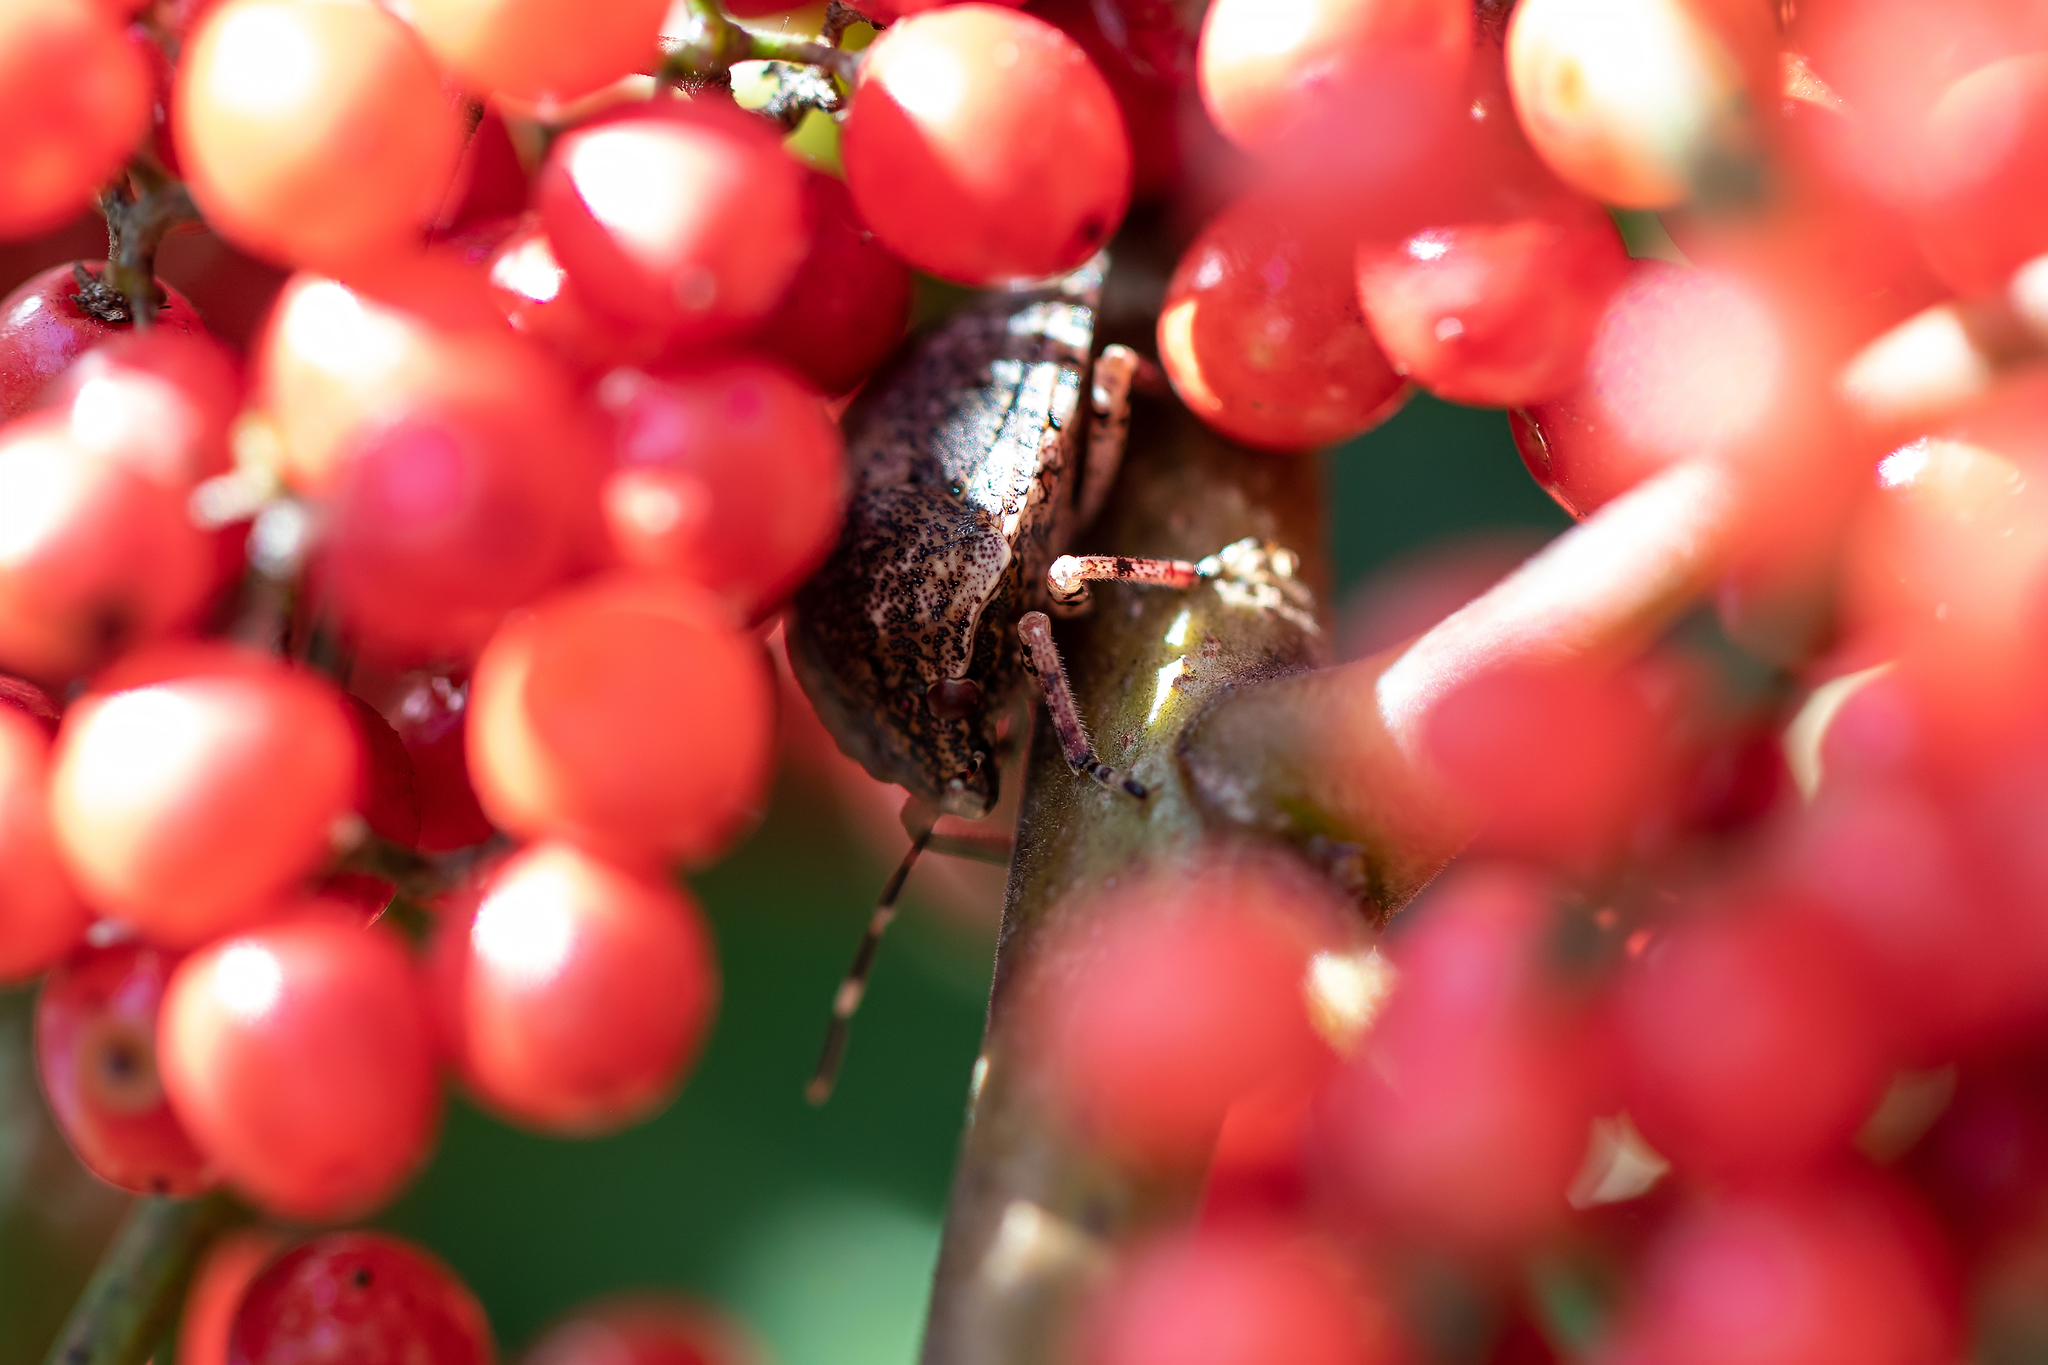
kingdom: Animalia
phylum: Arthropoda
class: Insecta
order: Hemiptera
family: Scutelleridae
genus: Tetyra
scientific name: Tetyra antillarum
